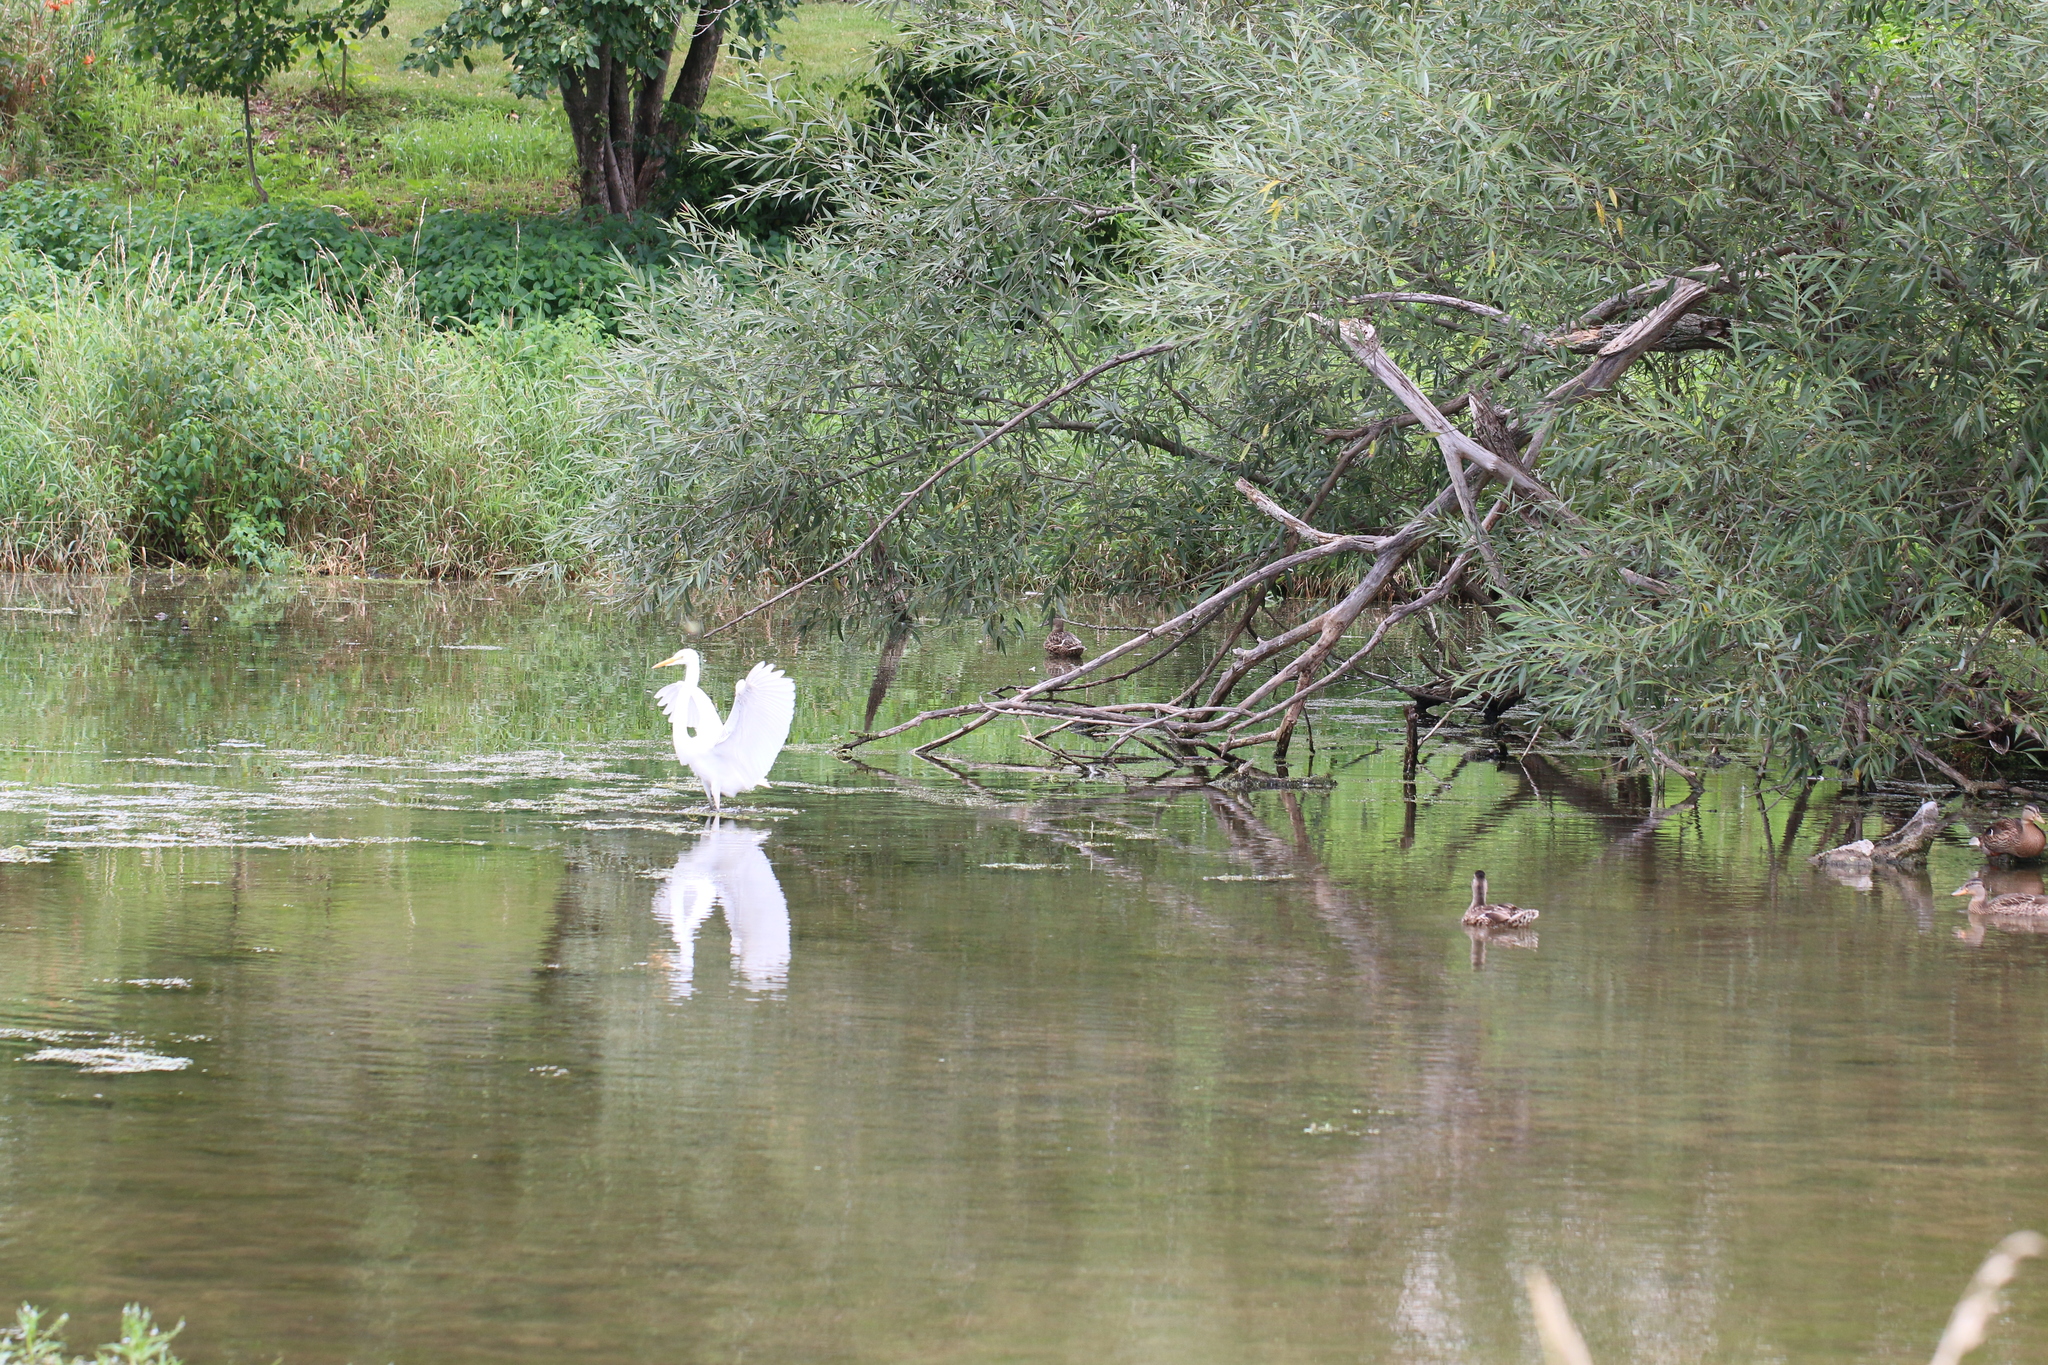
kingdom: Animalia
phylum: Chordata
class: Aves
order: Pelecaniformes
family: Ardeidae
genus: Ardea
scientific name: Ardea alba
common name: Great egret
